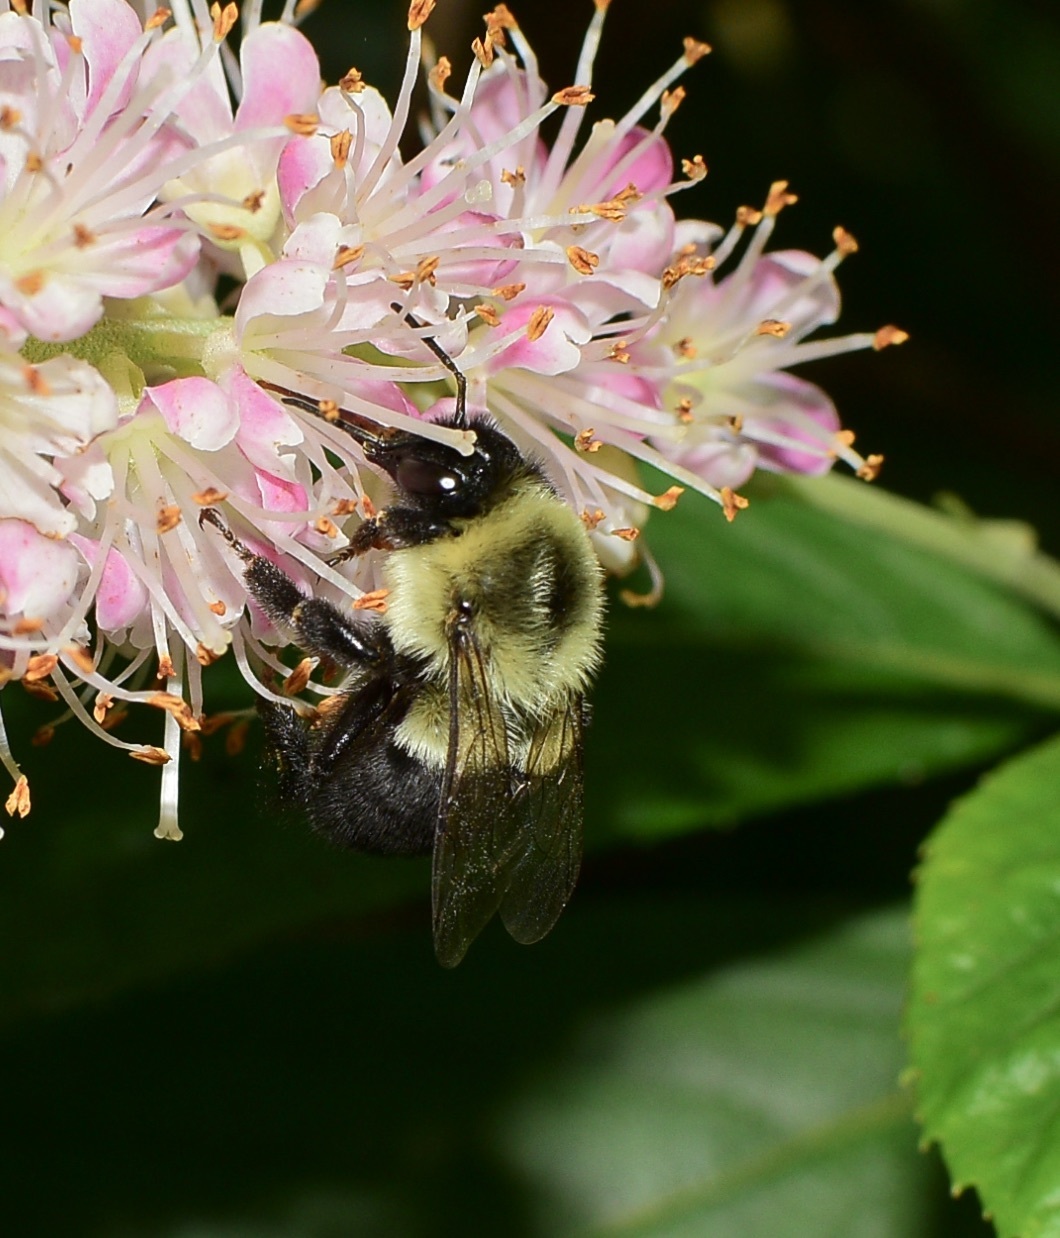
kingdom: Animalia
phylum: Arthropoda
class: Insecta
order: Hymenoptera
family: Apidae
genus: Bombus
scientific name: Bombus impatiens
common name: Common eastern bumble bee
